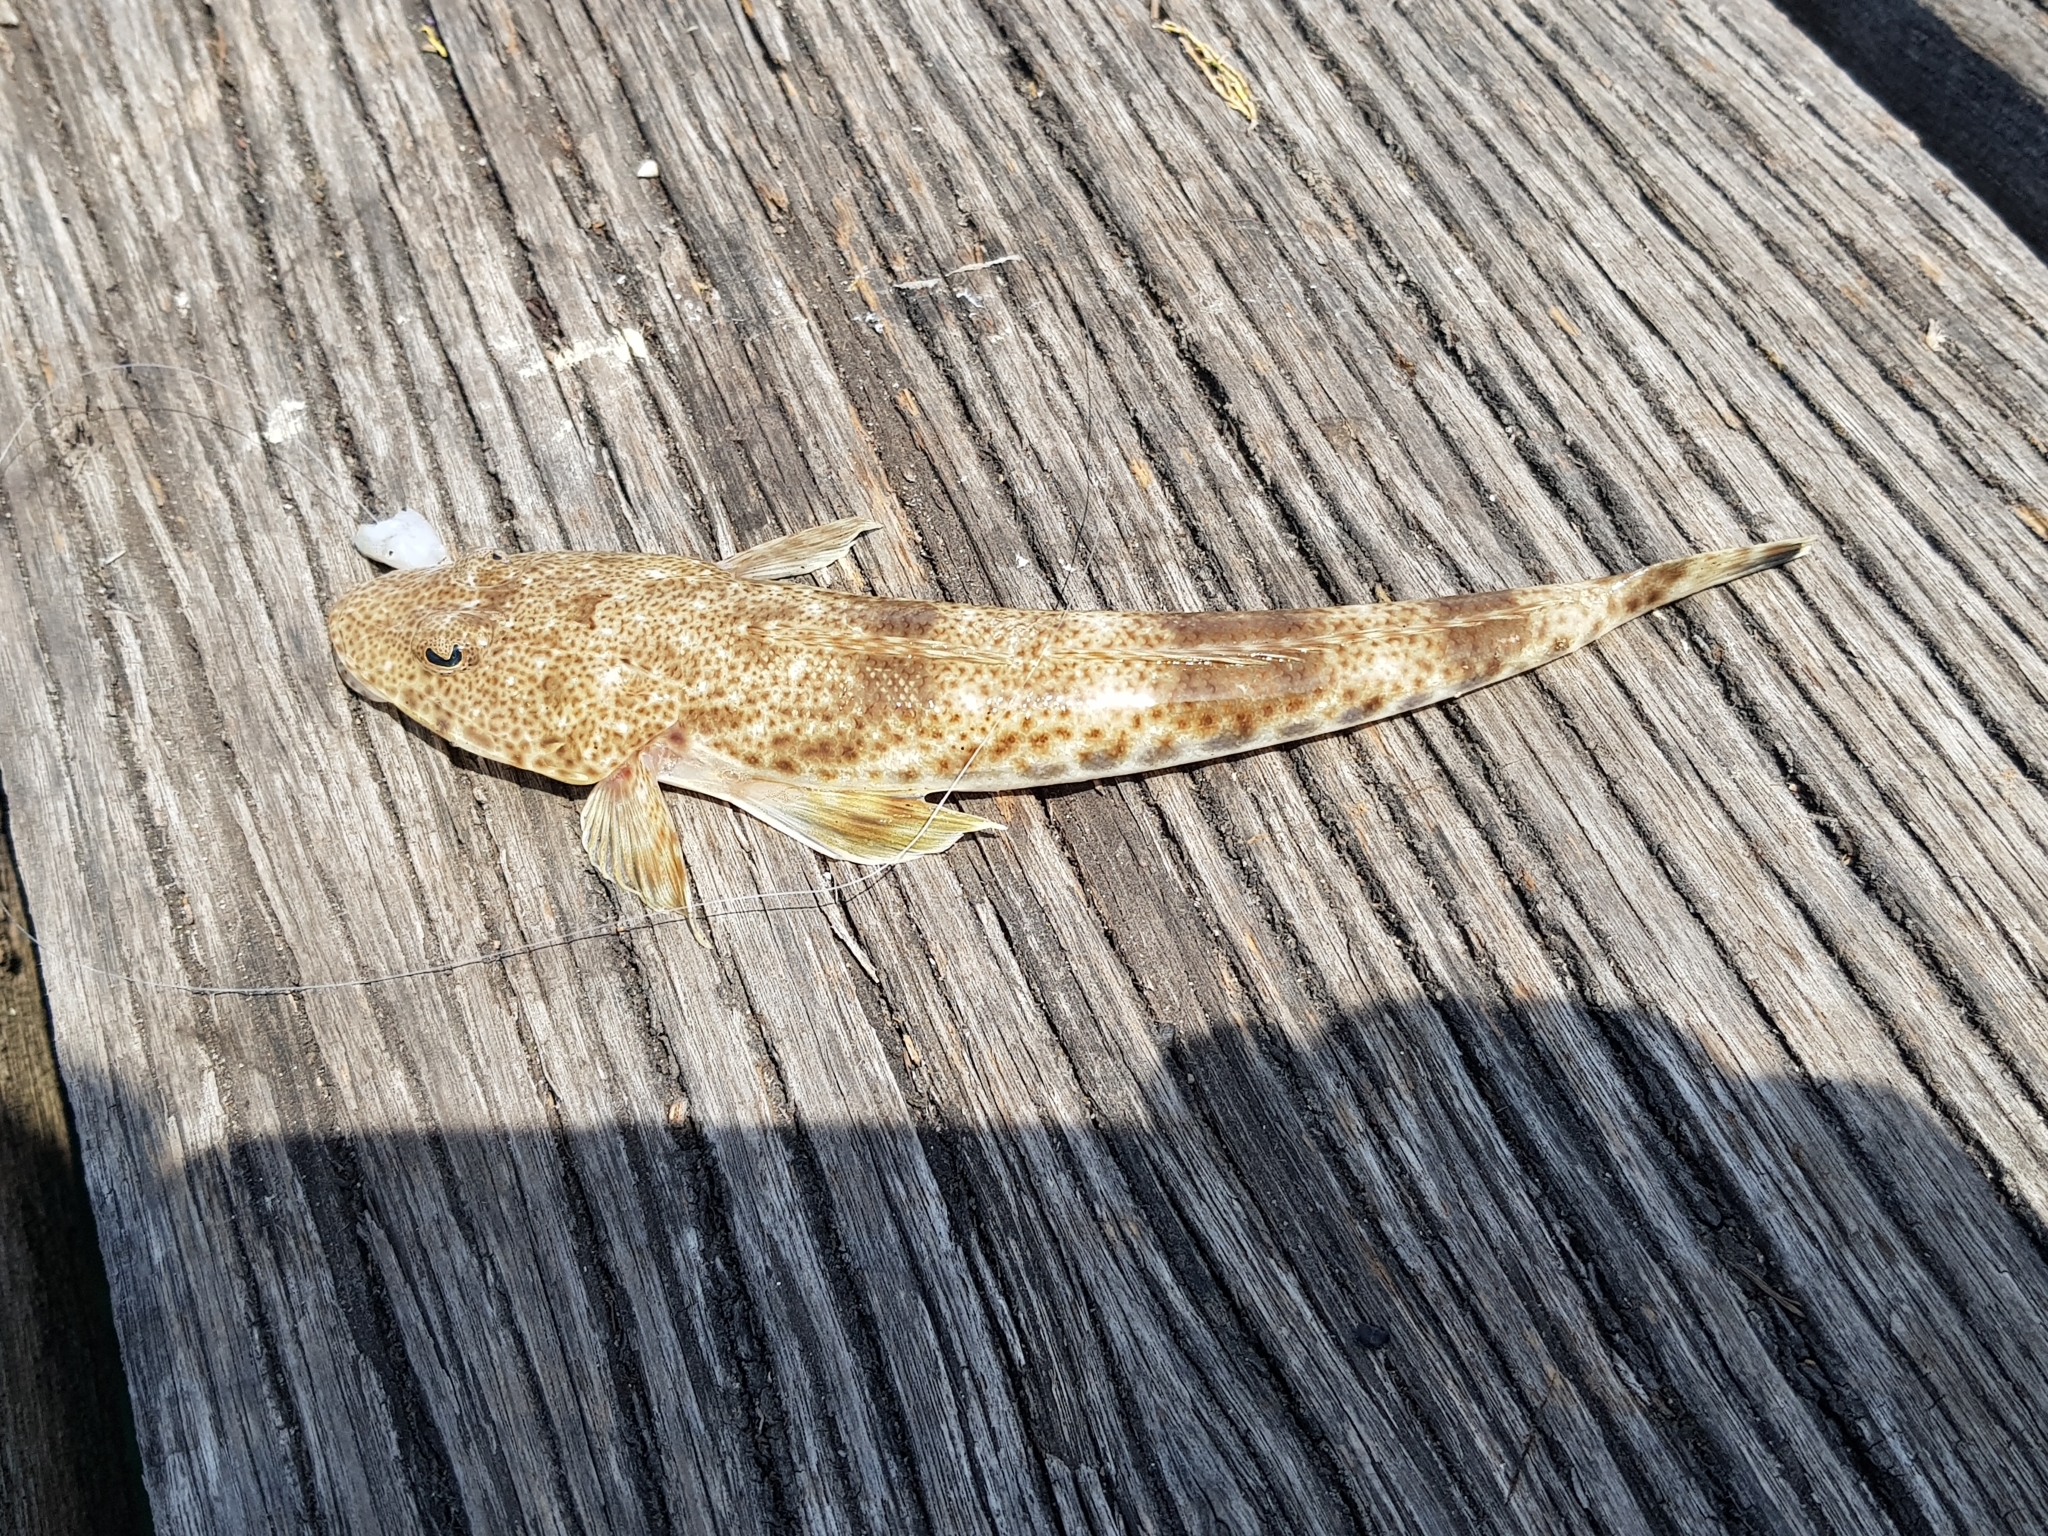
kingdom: Animalia
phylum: Chordata
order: Scorpaeniformes
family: Platycephalidae
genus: Platycephalus
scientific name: Platycephalus bassensis
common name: Sand flathead
